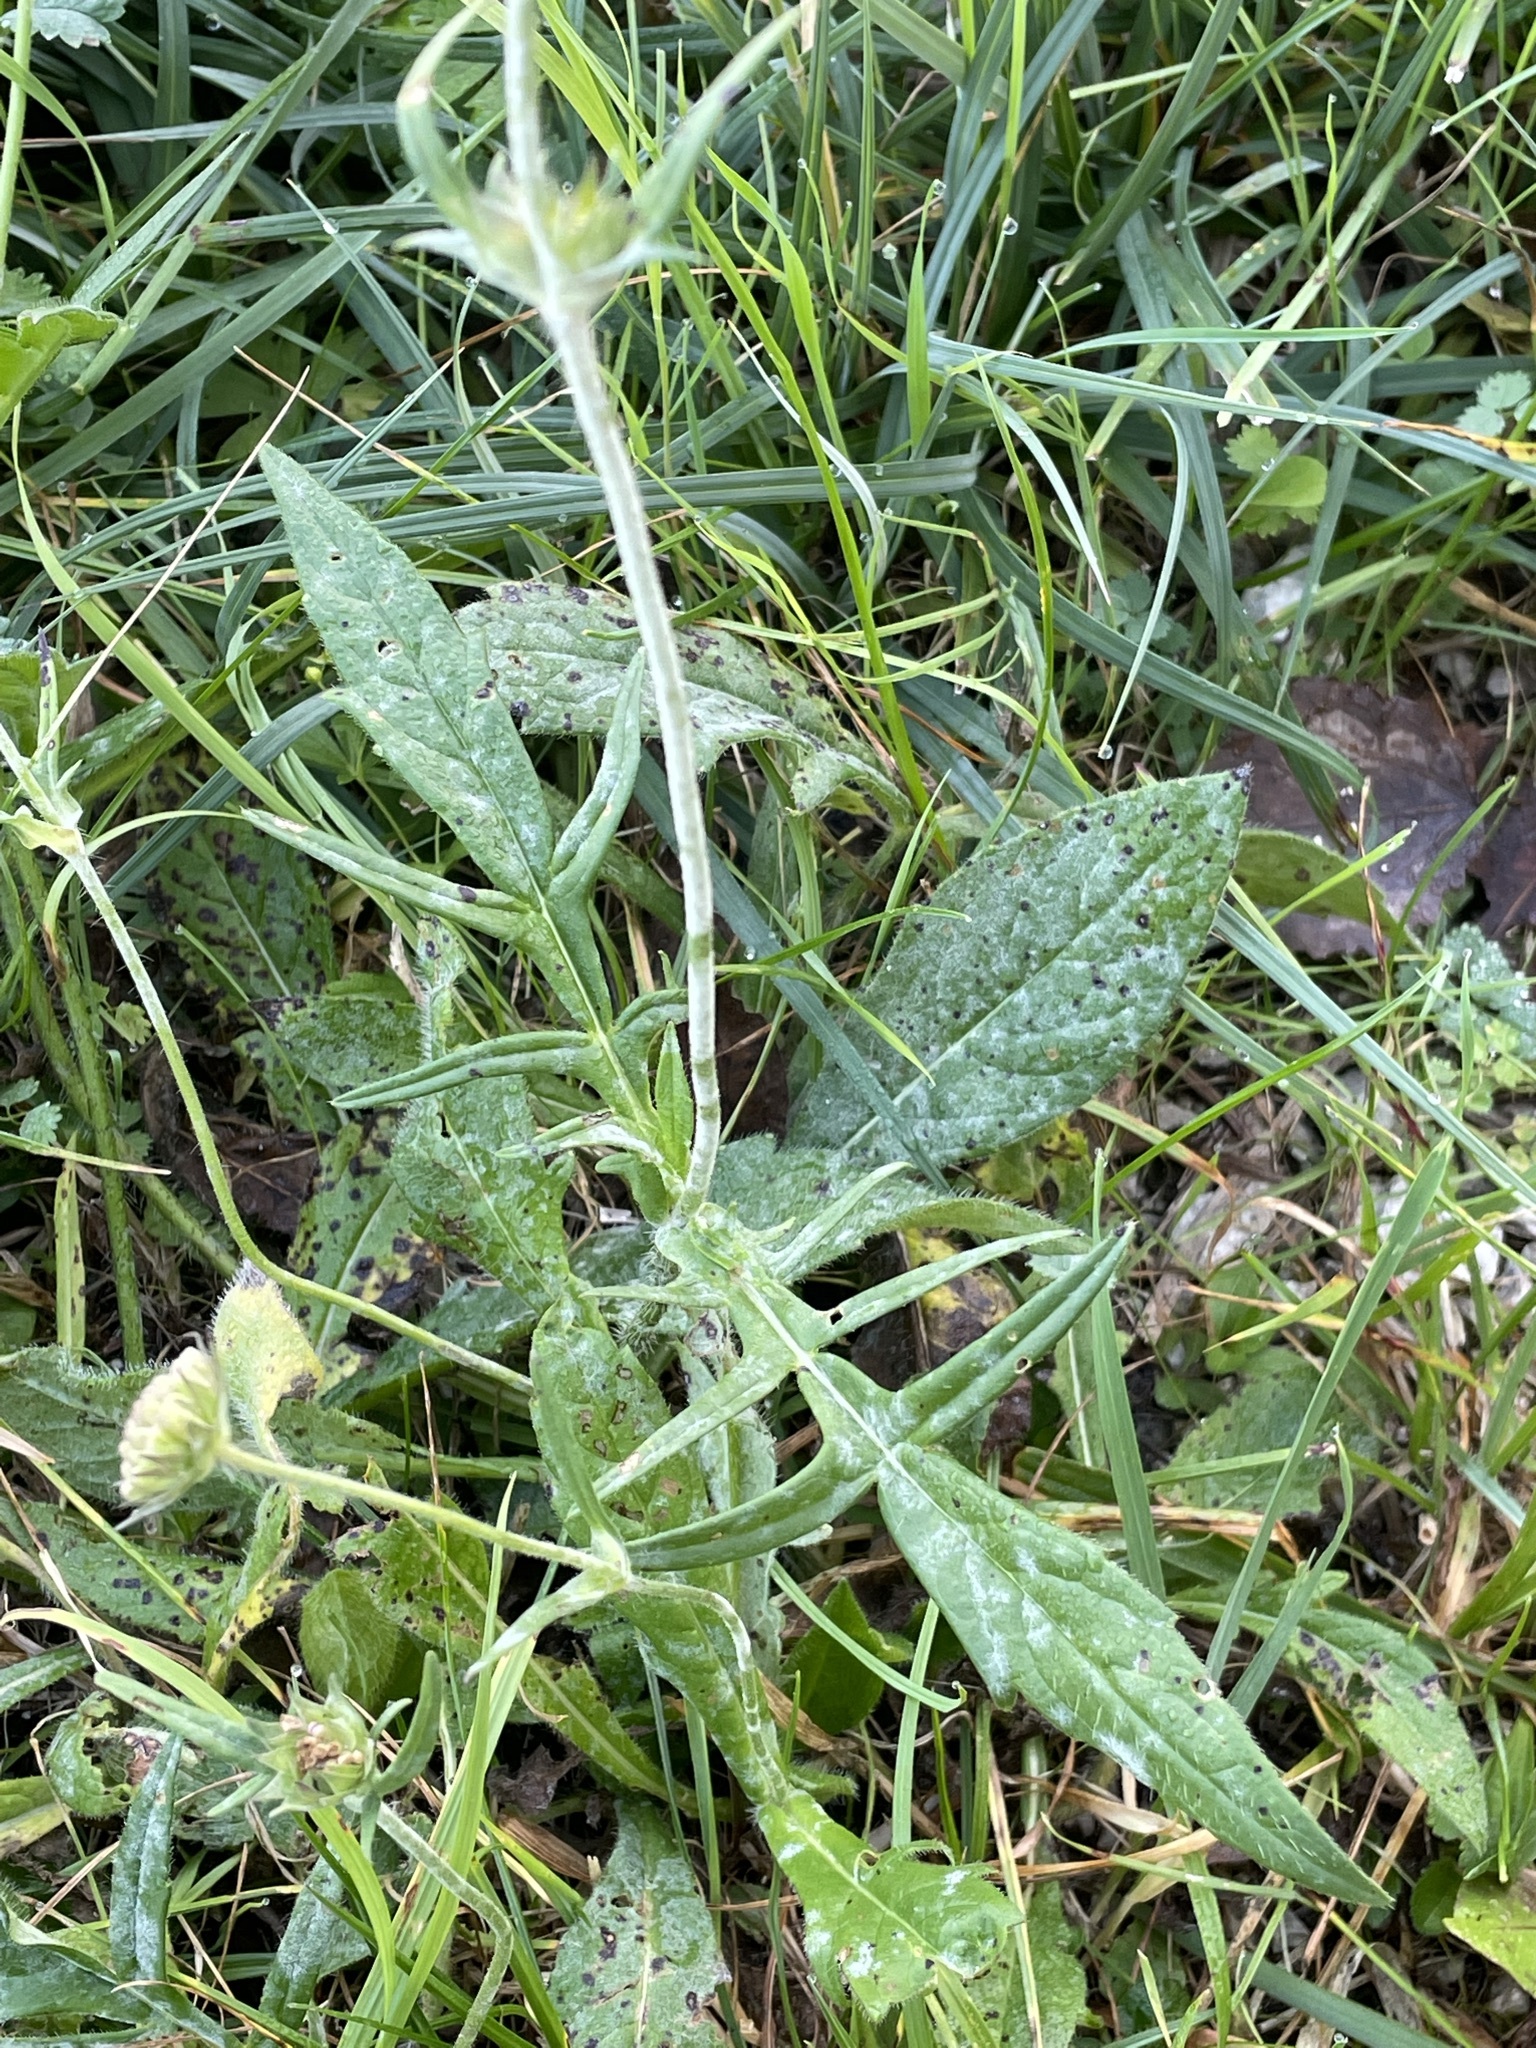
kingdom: Plantae
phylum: Tracheophyta
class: Magnoliopsida
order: Dipsacales
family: Caprifoliaceae
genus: Knautia
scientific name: Knautia arvensis
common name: Field scabiosa
